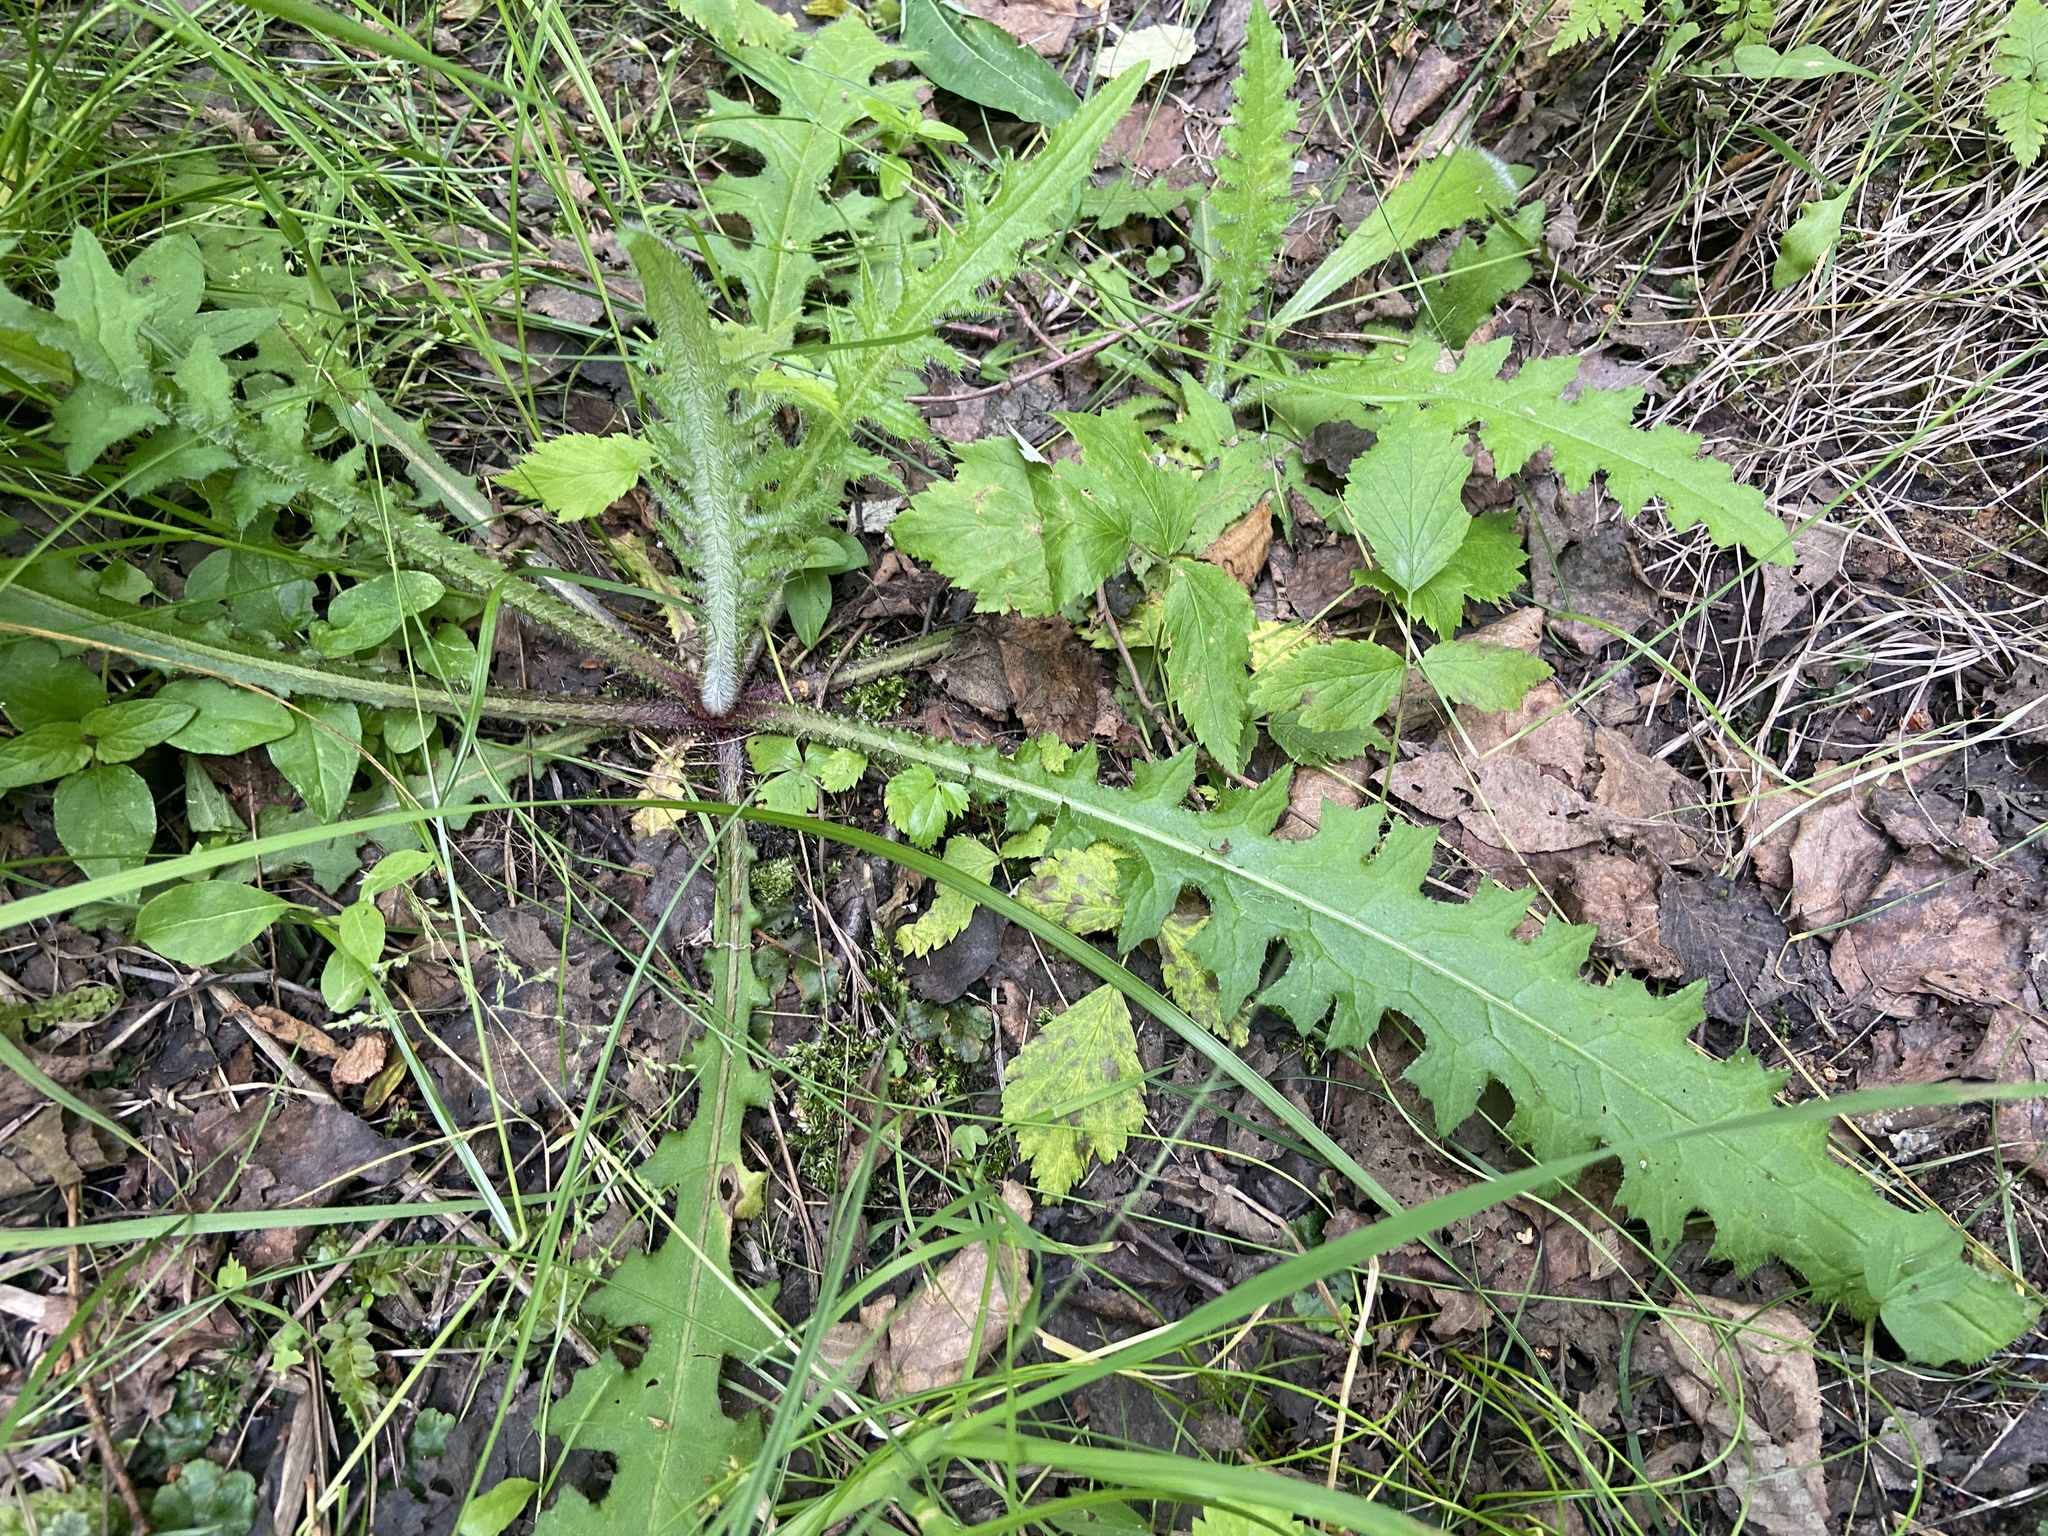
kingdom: Plantae
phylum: Tracheophyta
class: Magnoliopsida
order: Asterales
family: Asteraceae
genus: Cirsium
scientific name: Cirsium palustre
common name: Marsh thistle
